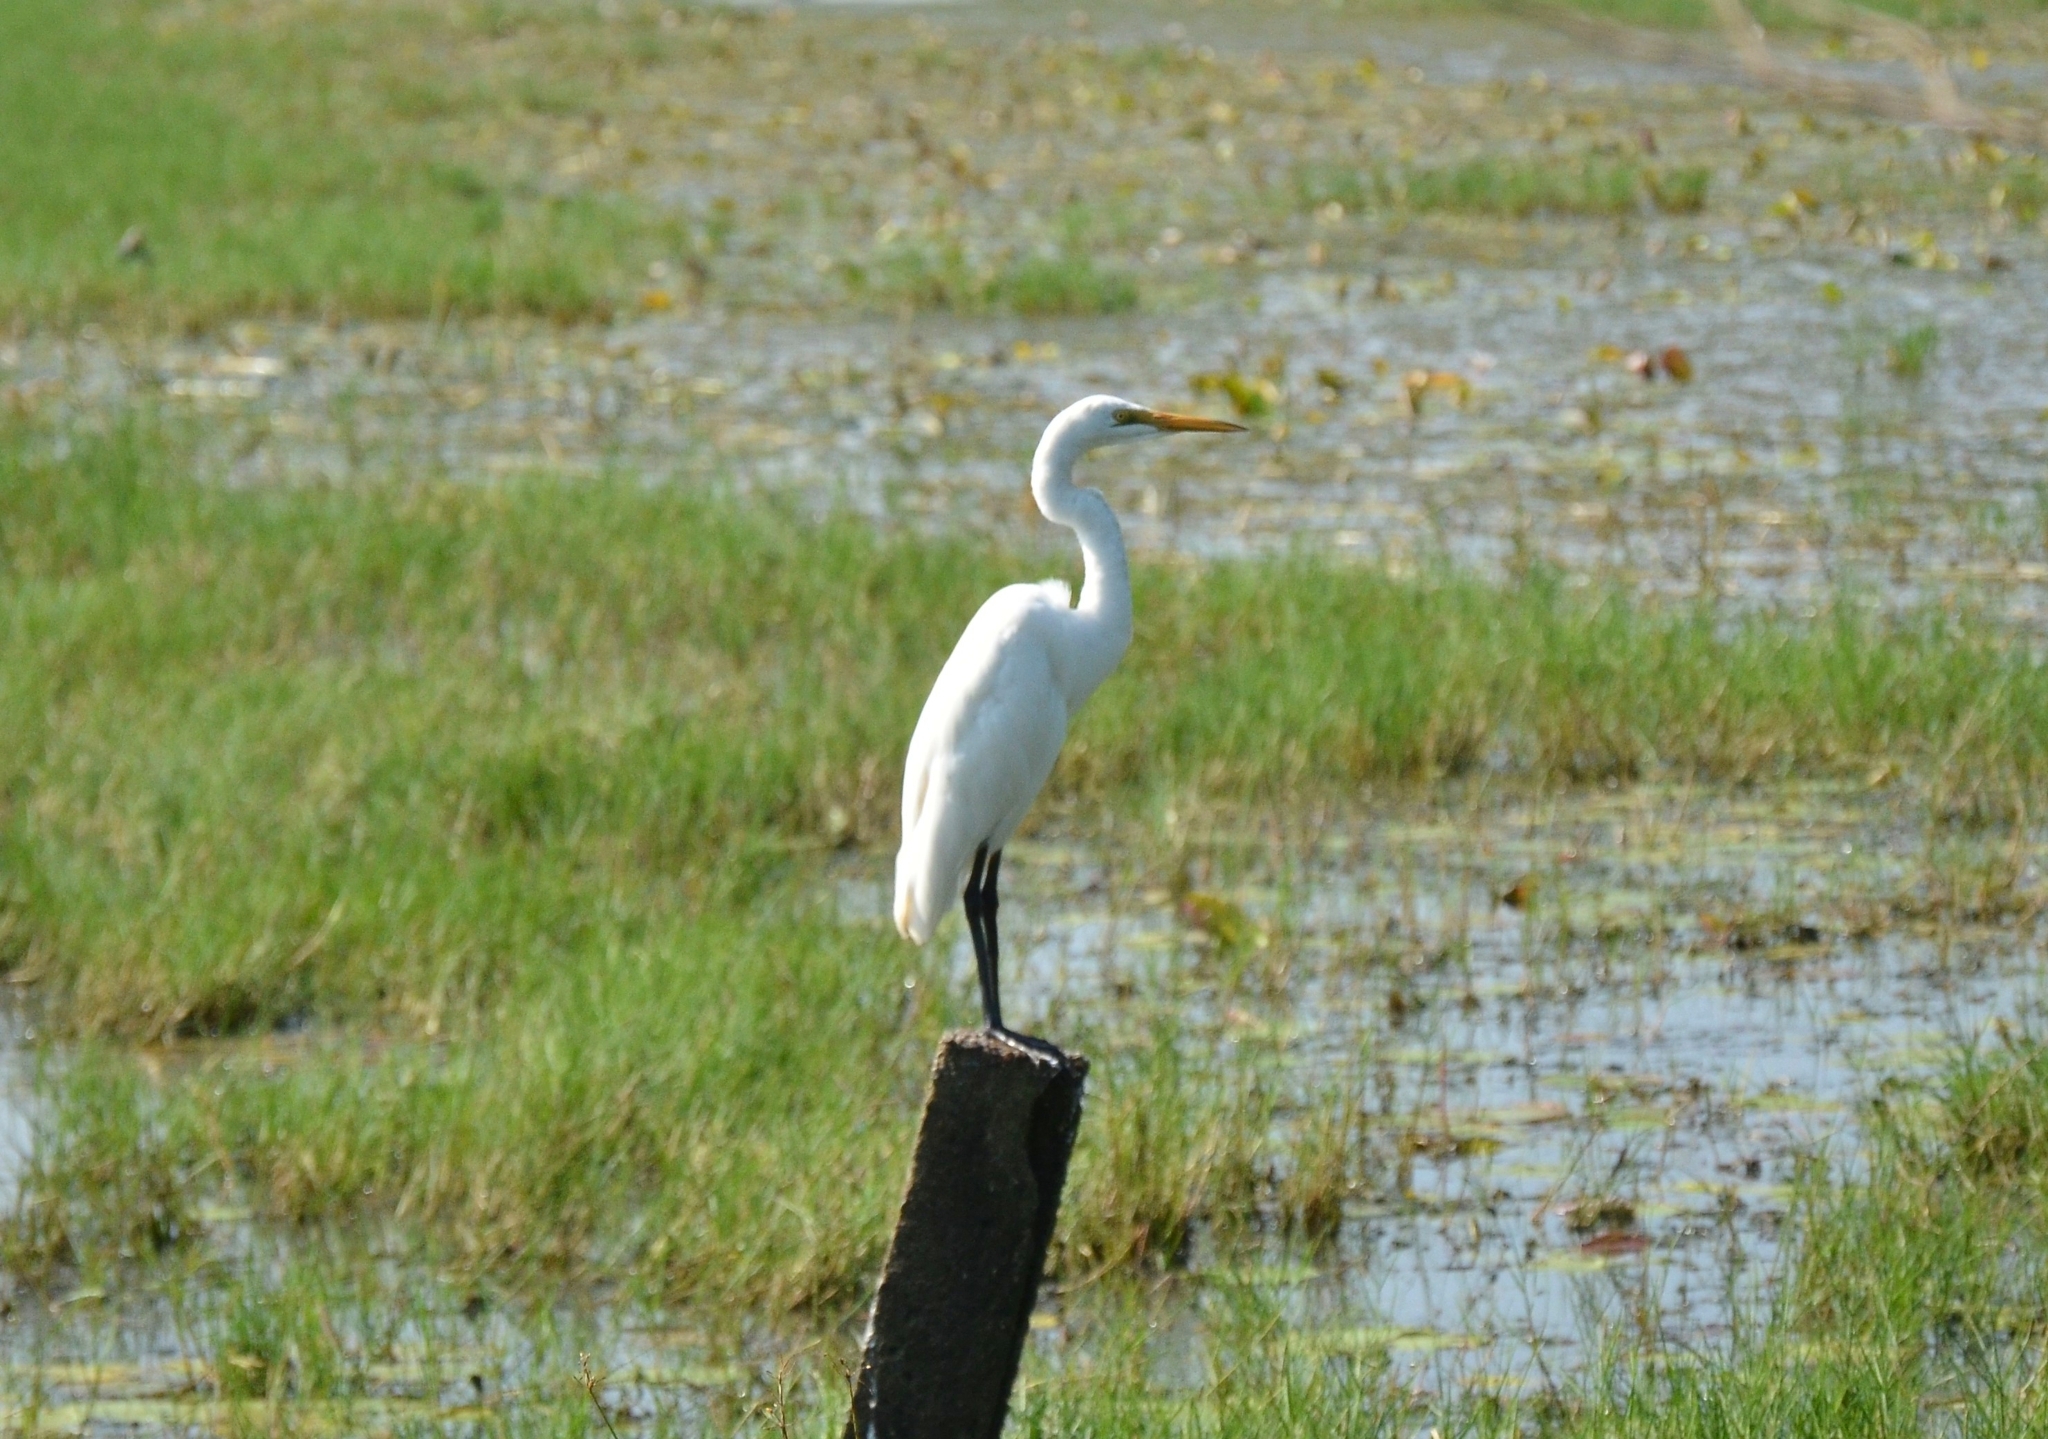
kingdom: Animalia
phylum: Chordata
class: Aves
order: Pelecaniformes
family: Ardeidae
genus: Ardea
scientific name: Ardea alba
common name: Great egret
